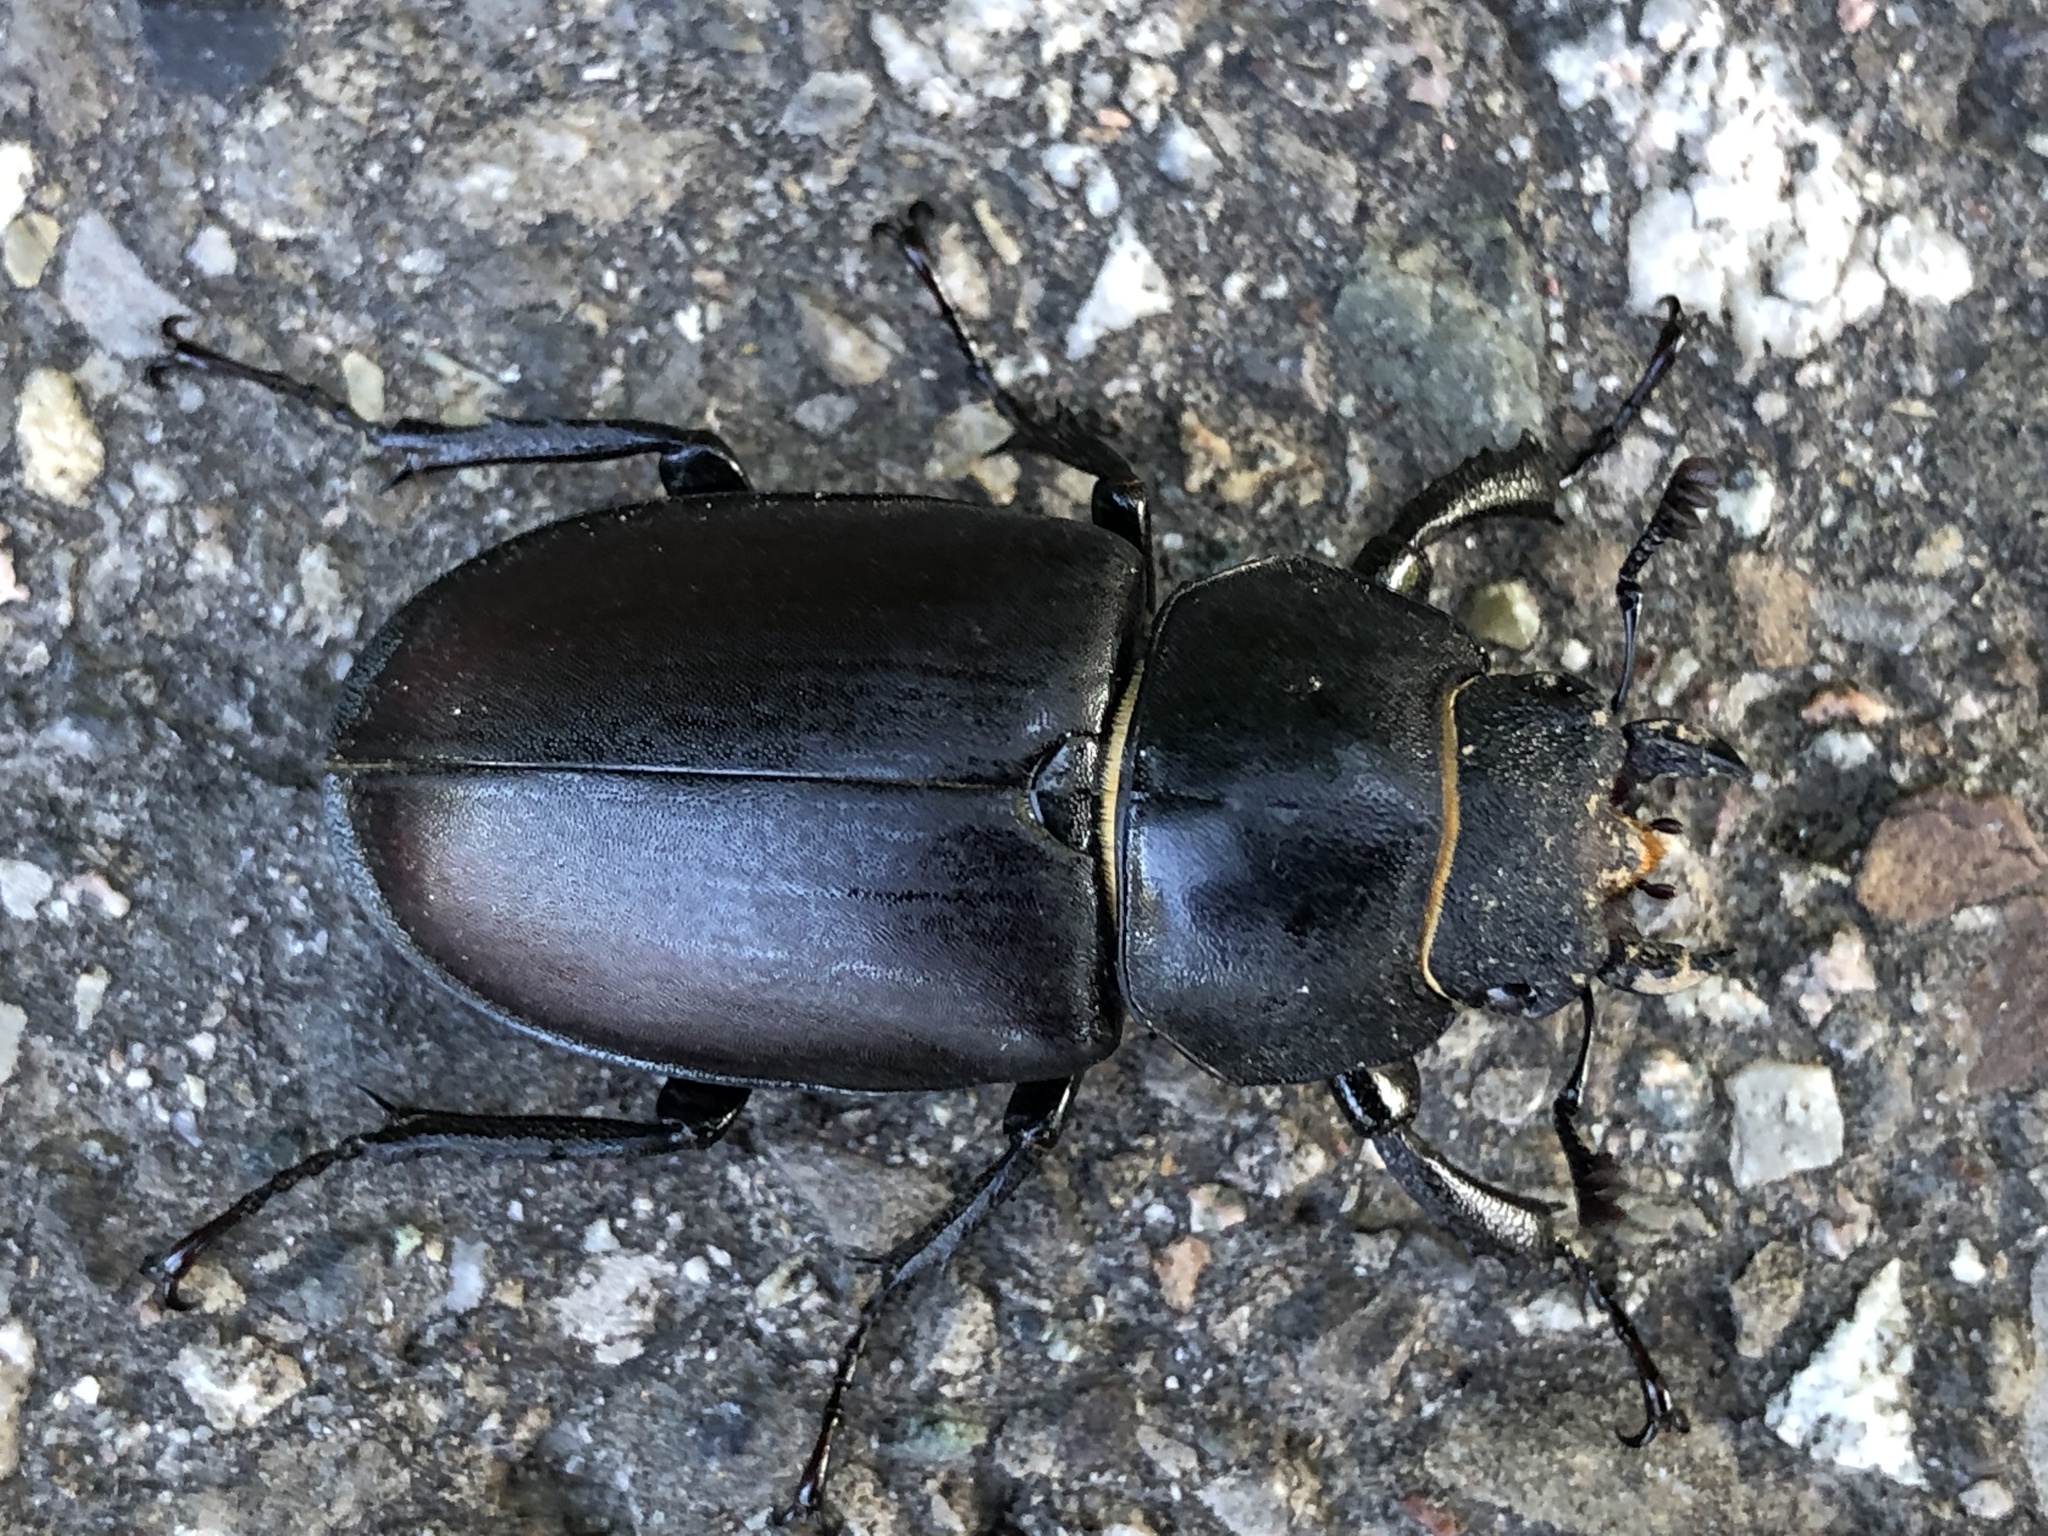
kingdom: Animalia
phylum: Arthropoda
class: Insecta
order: Coleoptera
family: Lucanidae
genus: Lucanus
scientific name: Lucanus cervus
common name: Stag beetle
